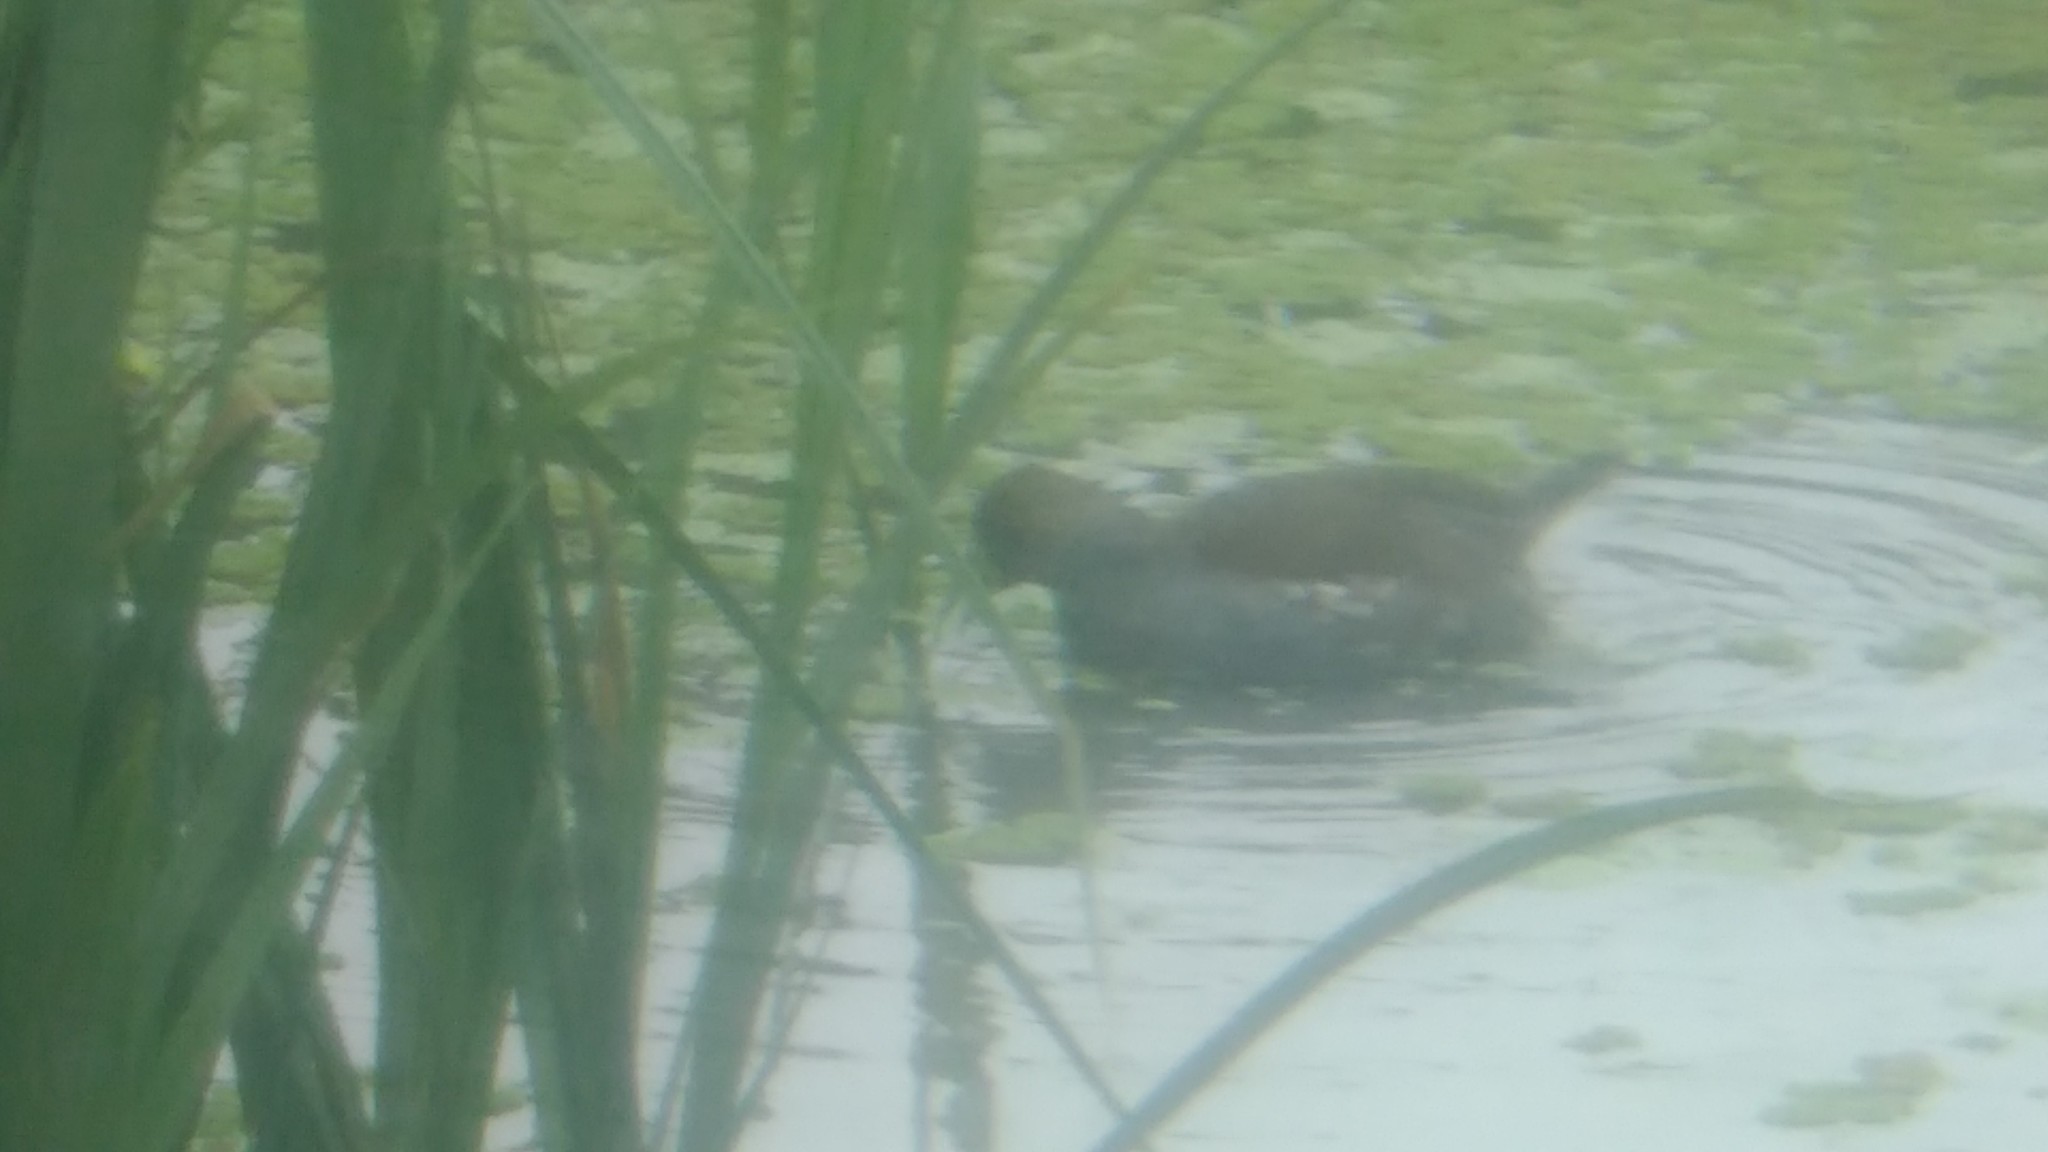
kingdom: Animalia
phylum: Chordata
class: Aves
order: Gruiformes
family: Rallidae
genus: Gallinula
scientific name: Gallinula melanops
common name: Spot-flanked gallinule
